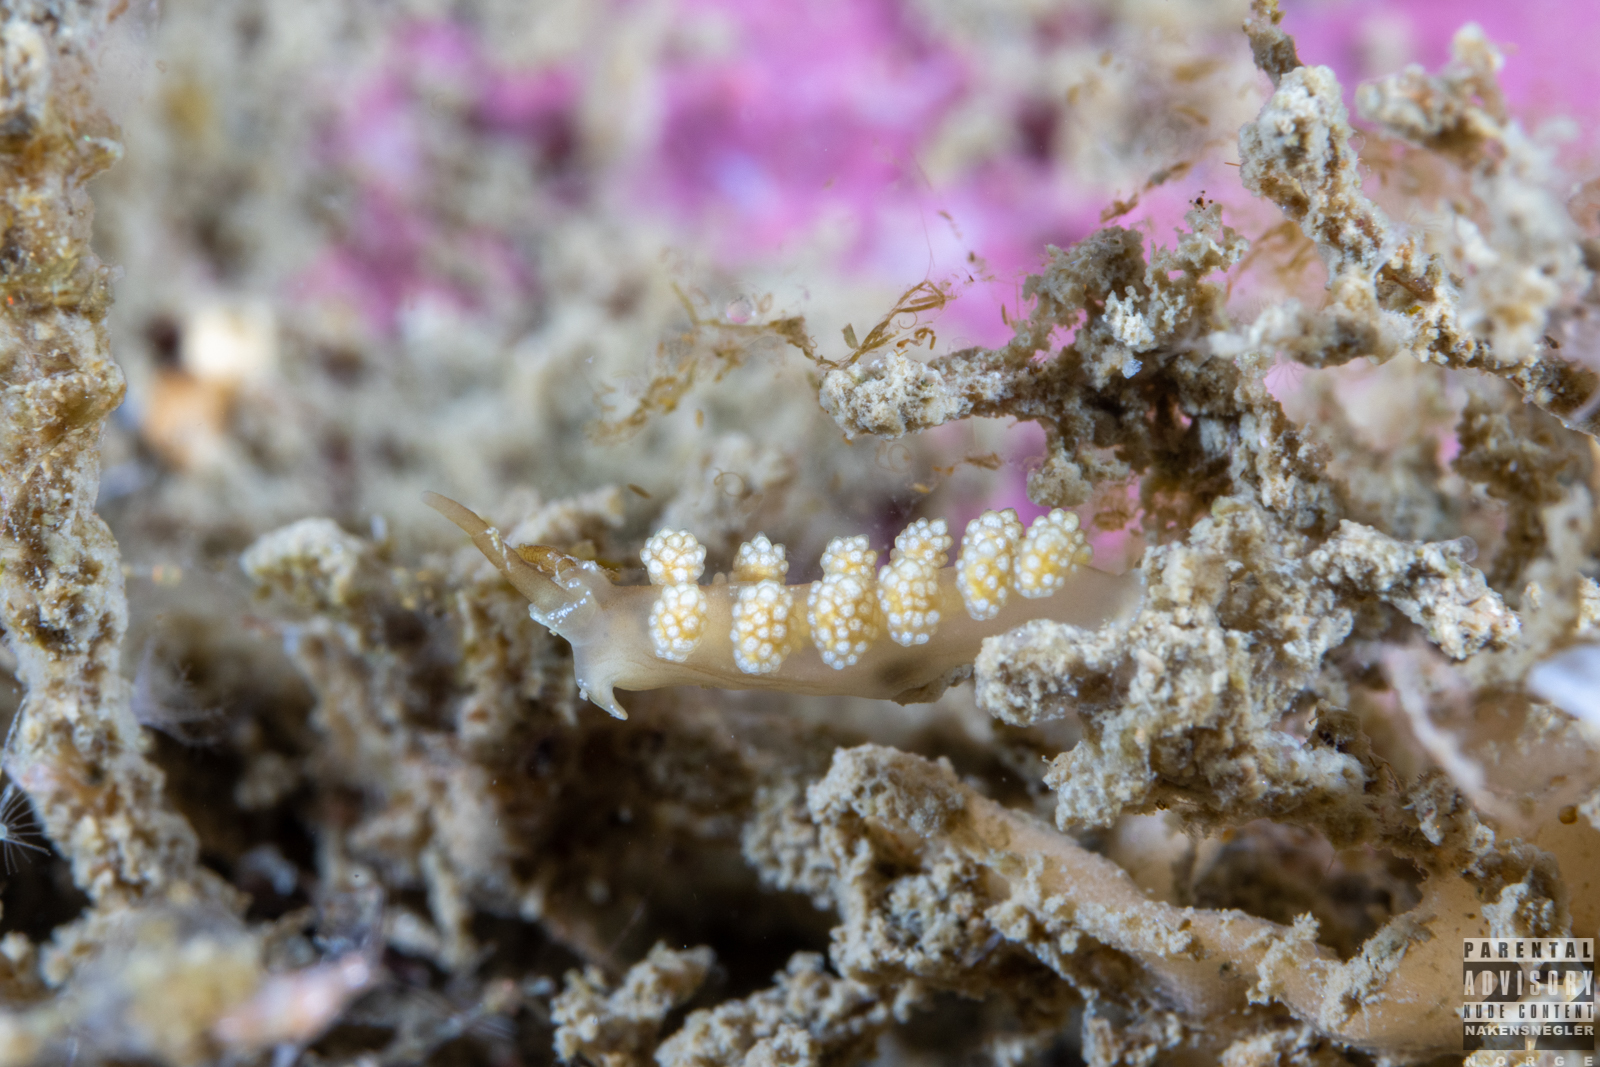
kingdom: Animalia
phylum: Mollusca
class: Gastropoda
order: Nudibranchia
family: Dotidae
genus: Doto
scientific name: Doto fragilis
